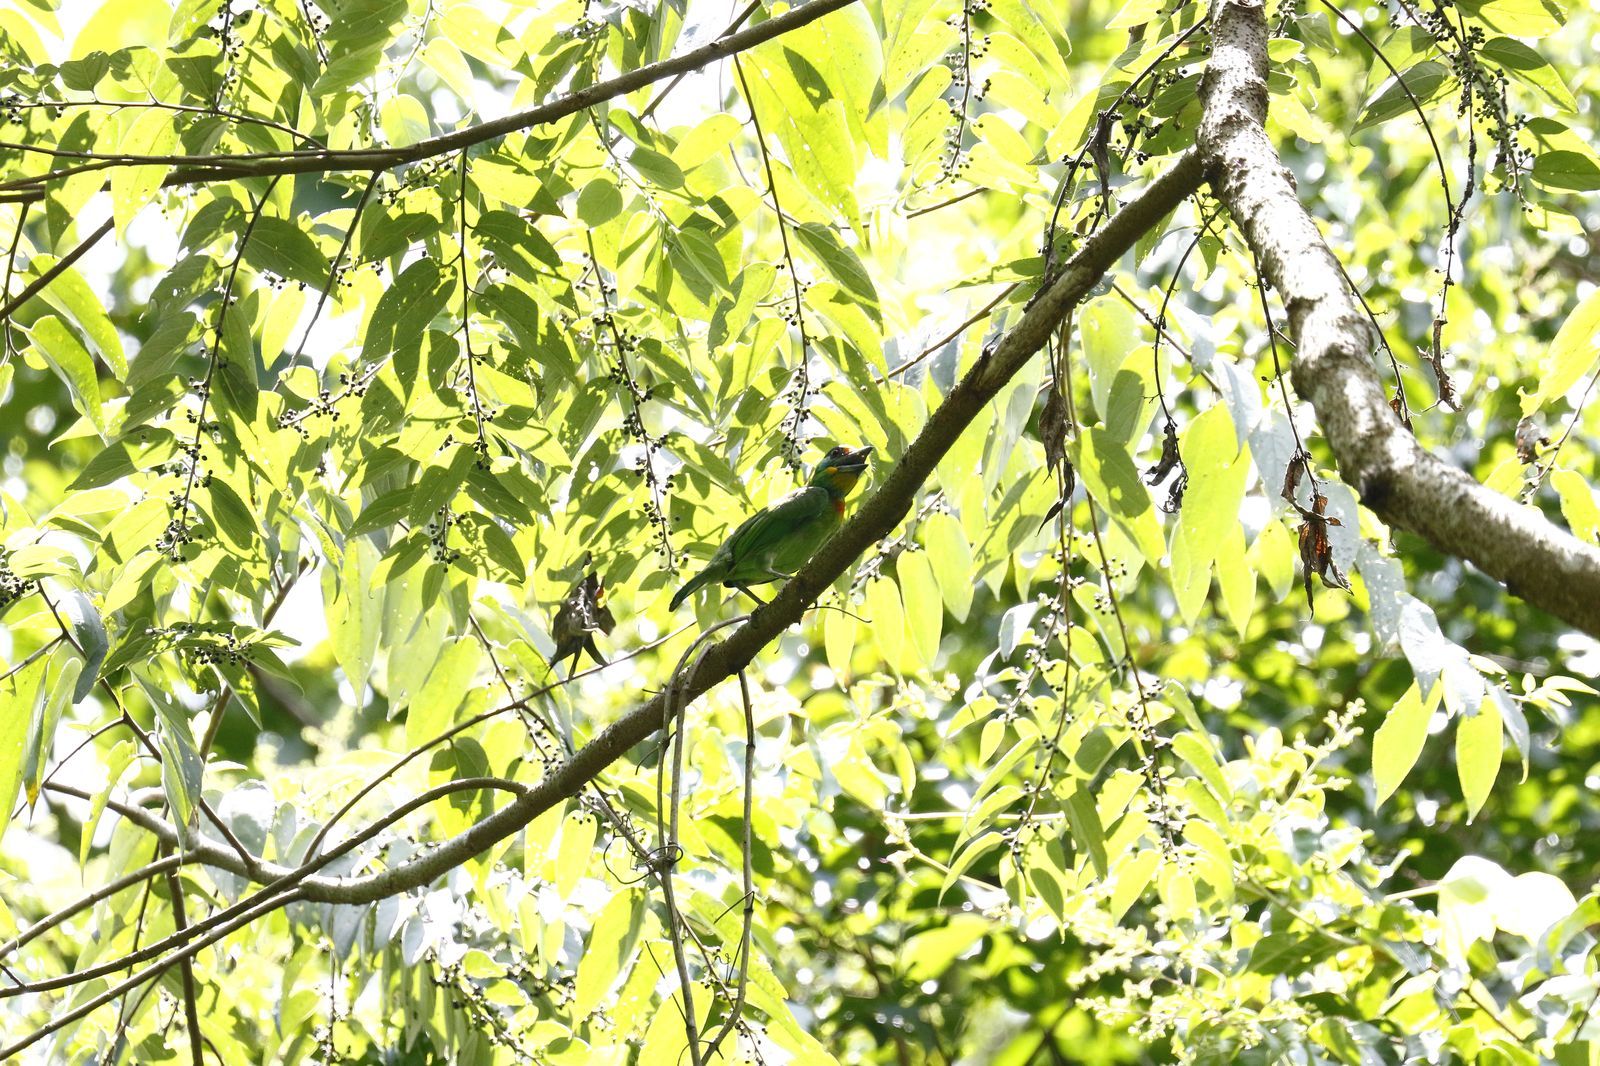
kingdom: Animalia
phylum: Chordata
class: Aves
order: Piciformes
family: Megalaimidae
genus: Psilopogon
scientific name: Psilopogon nuchalis
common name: Taiwan barbet
